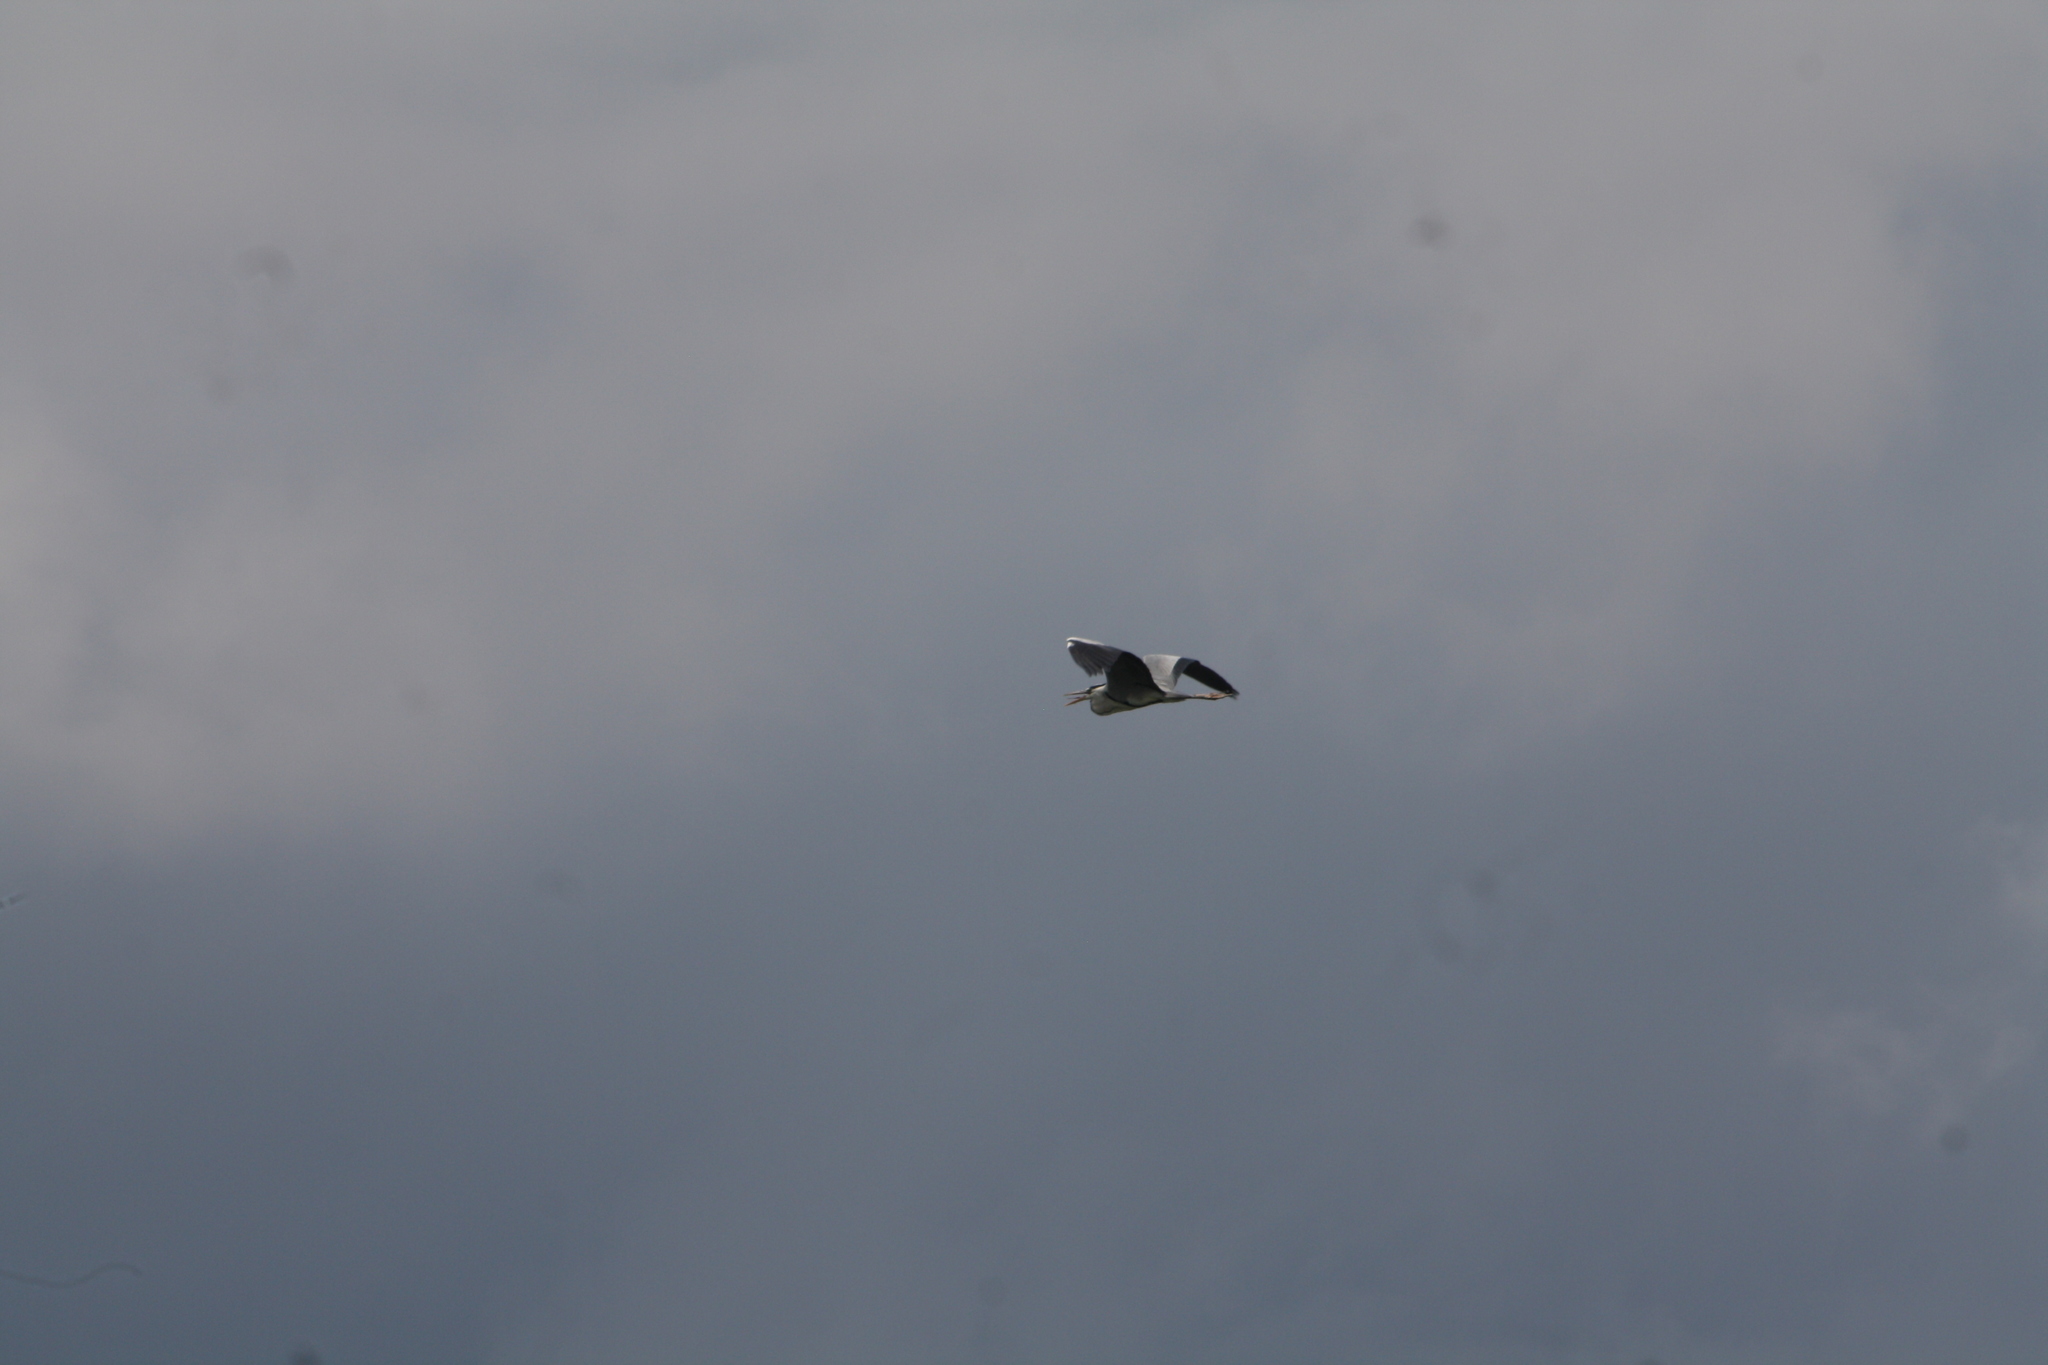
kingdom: Animalia
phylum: Chordata
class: Aves
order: Pelecaniformes
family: Ardeidae
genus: Ardea
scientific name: Ardea cinerea
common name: Grey heron
